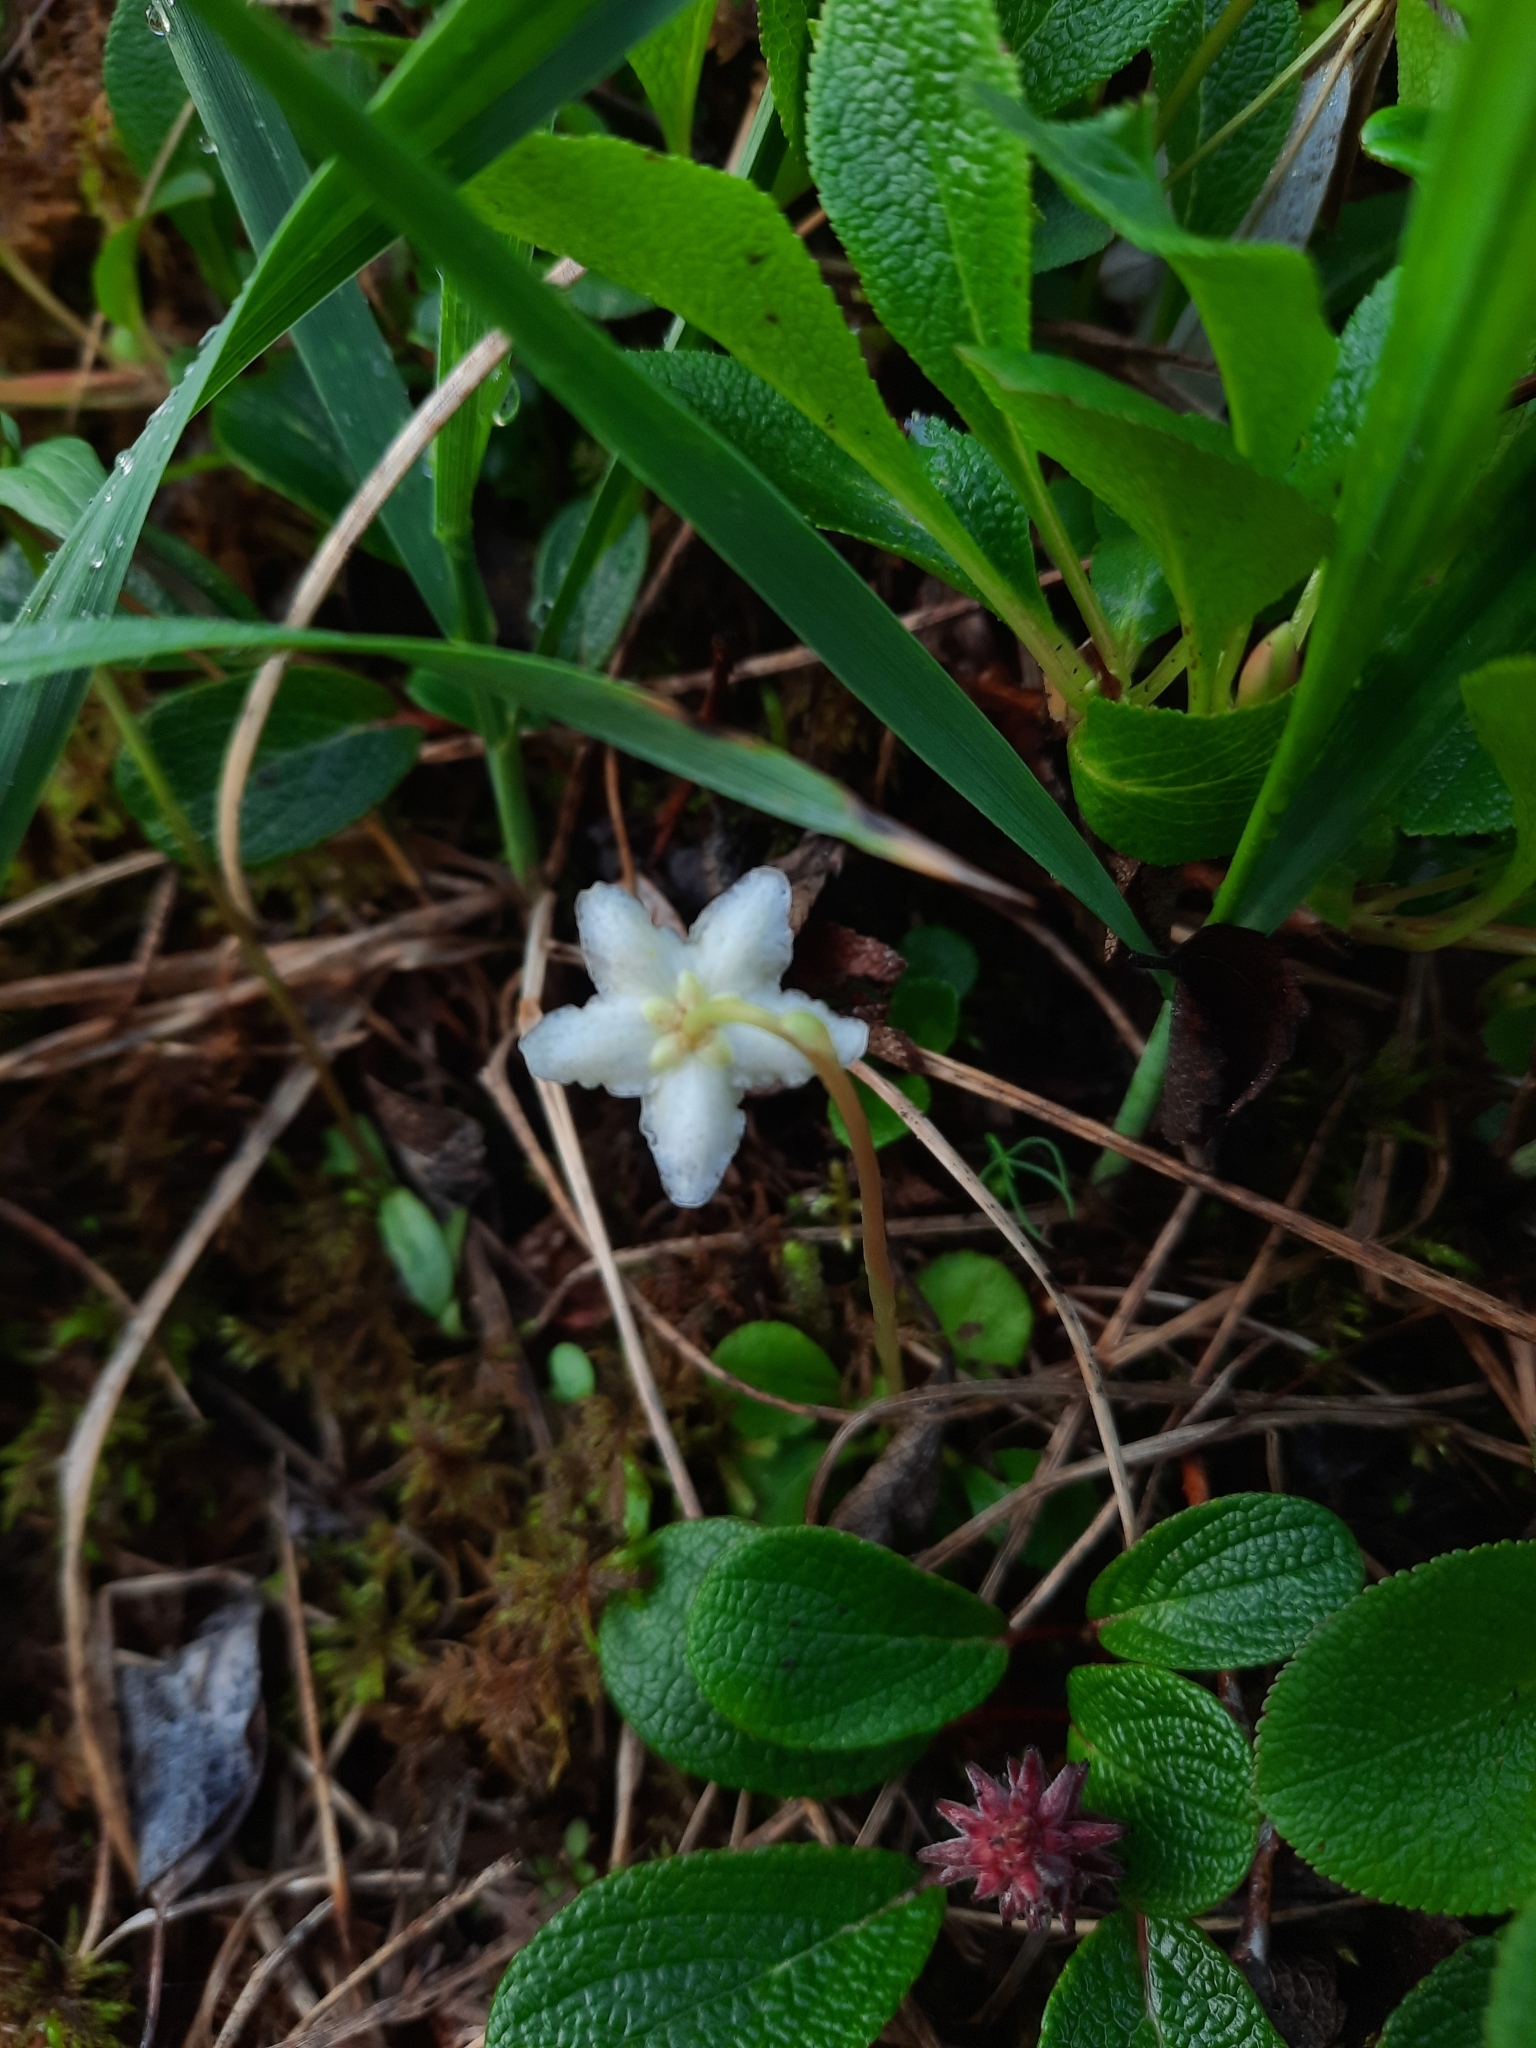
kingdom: Plantae
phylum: Tracheophyta
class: Magnoliopsida
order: Ericales
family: Ericaceae
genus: Moneses
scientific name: Moneses uniflora
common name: One-flowered wintergreen
